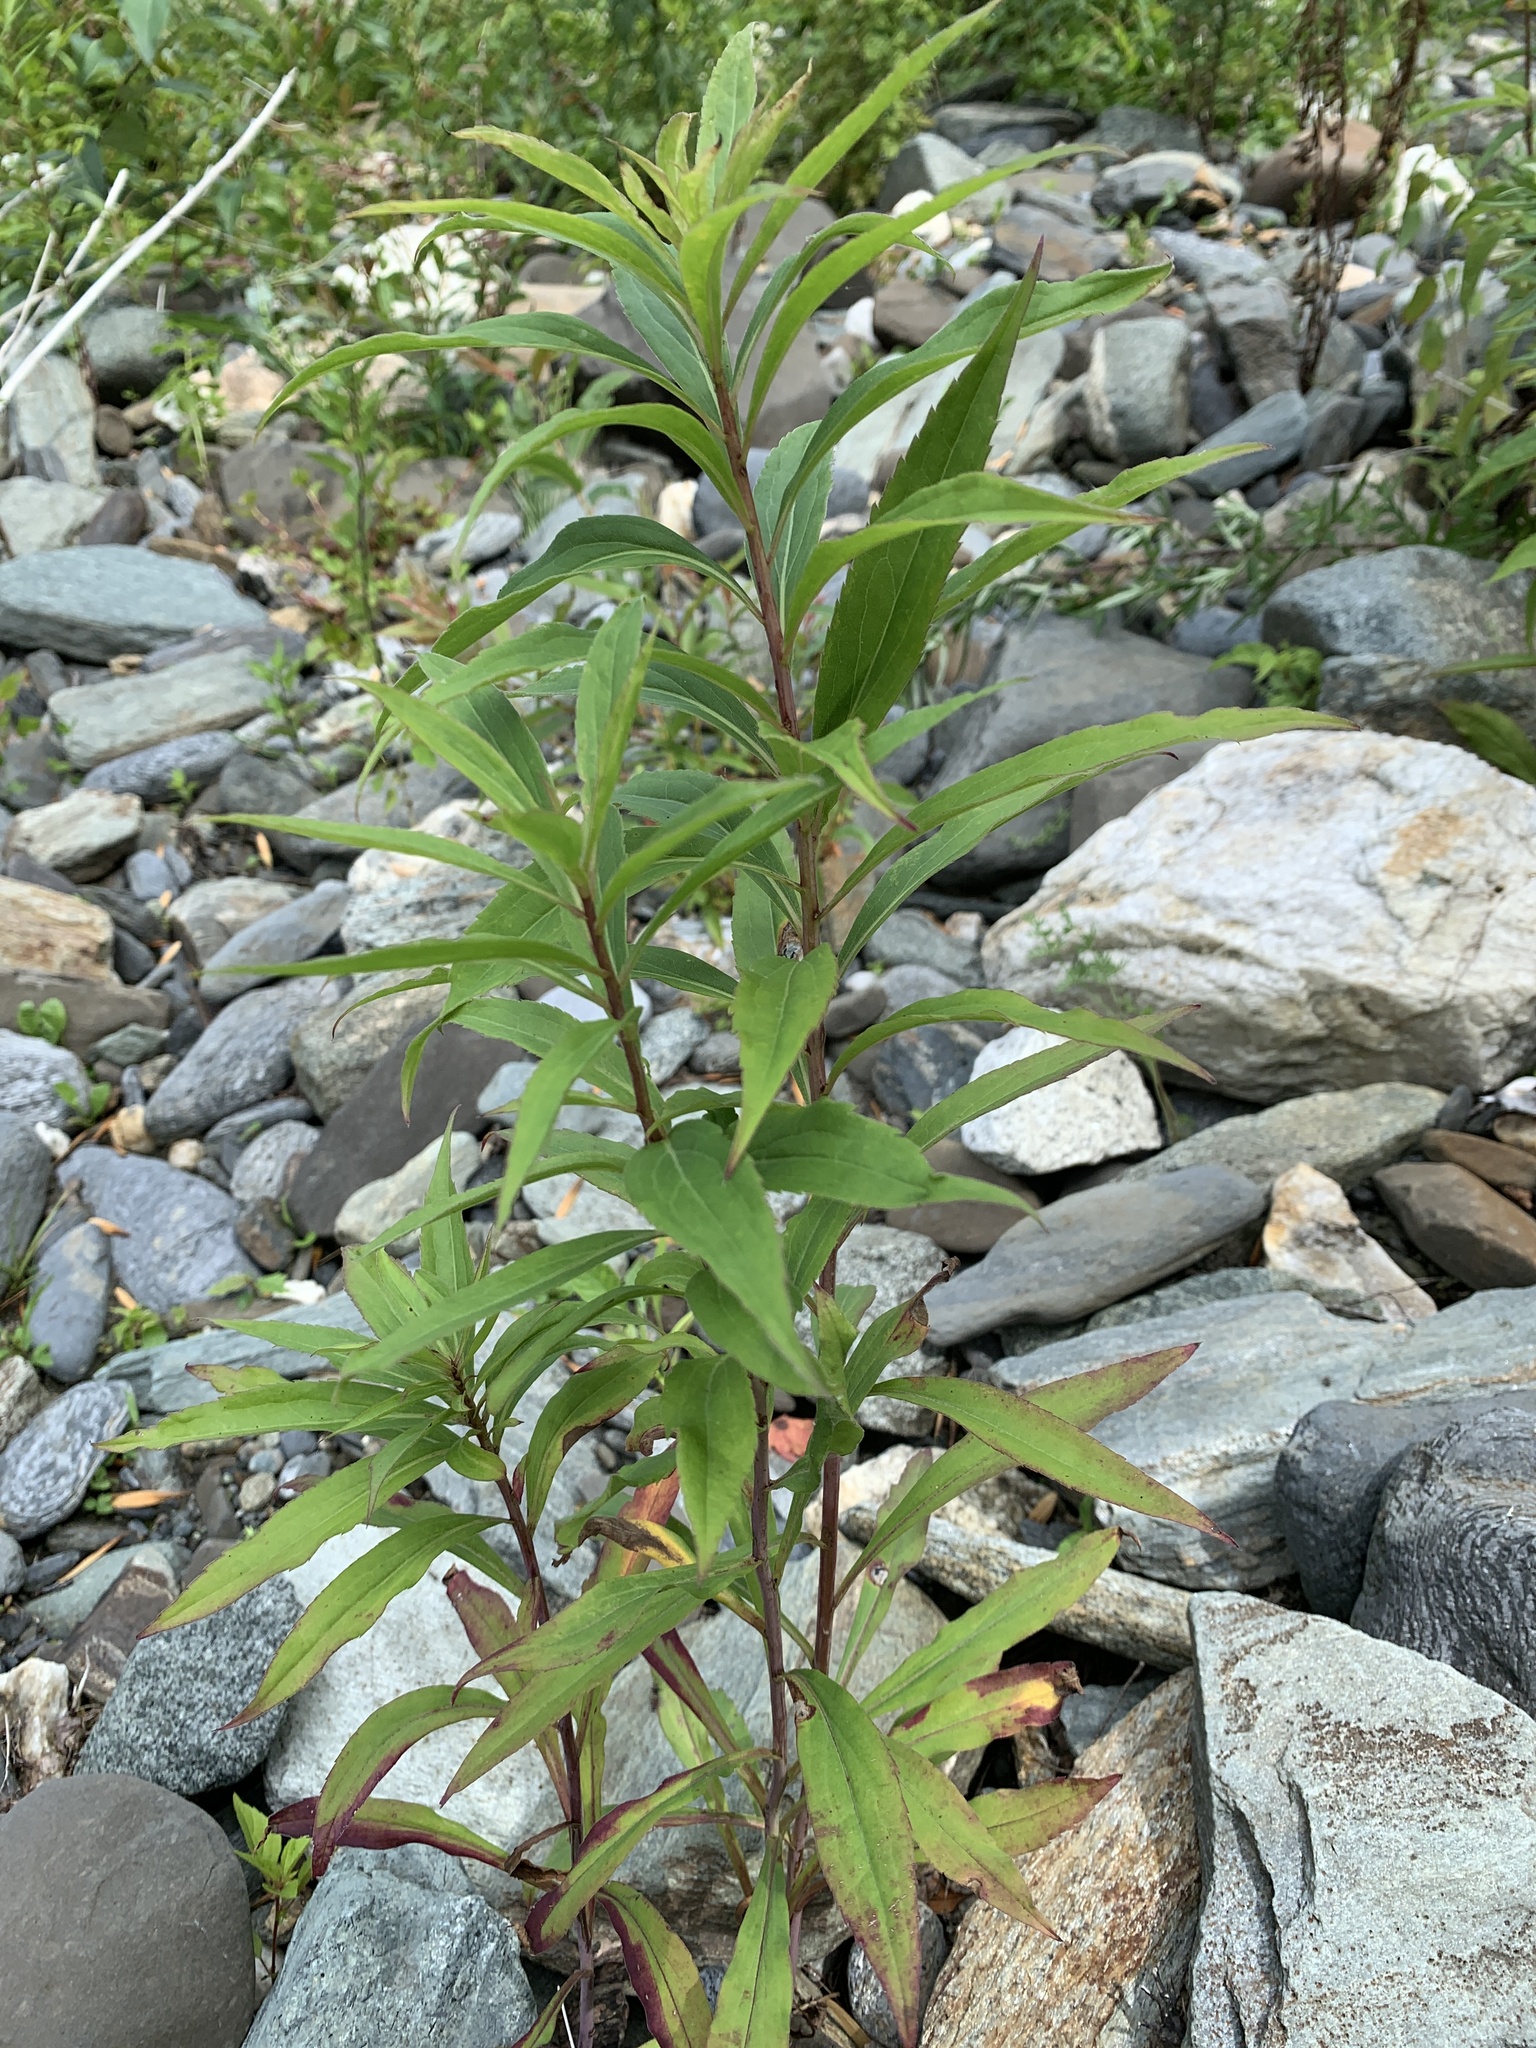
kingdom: Plantae
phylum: Tracheophyta
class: Magnoliopsida
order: Asterales
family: Asteraceae
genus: Solidago
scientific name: Solidago gigantea
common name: Giant goldenrod
